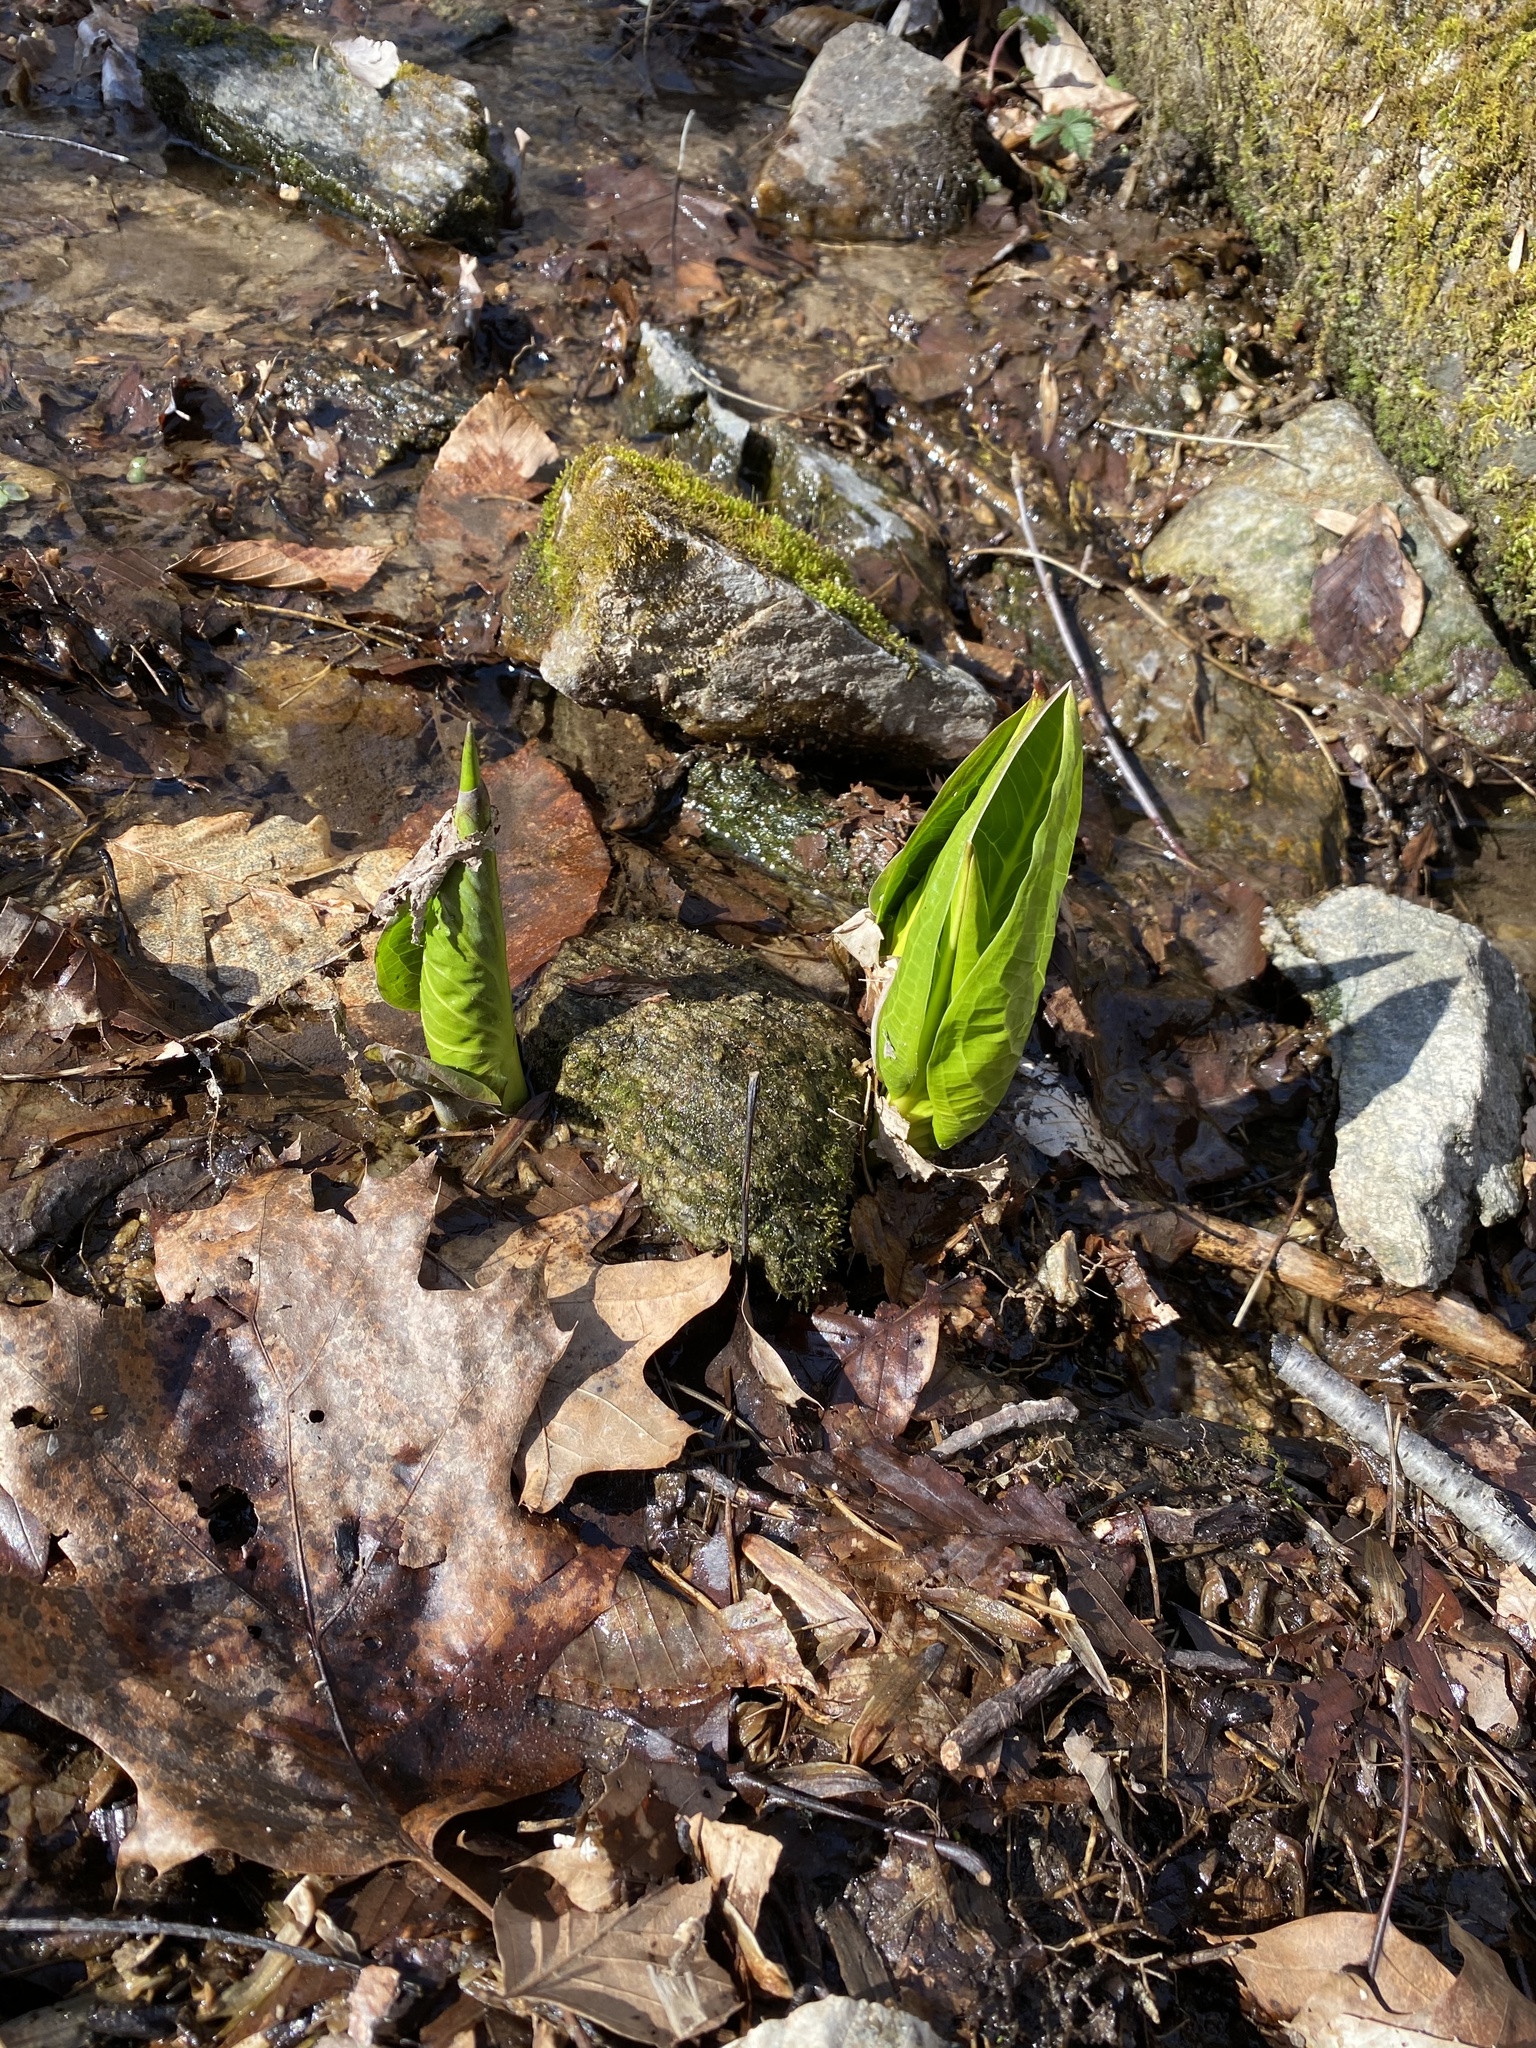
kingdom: Plantae
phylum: Tracheophyta
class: Liliopsida
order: Alismatales
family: Araceae
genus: Symplocarpus
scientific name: Symplocarpus foetidus
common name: Eastern skunk cabbage
